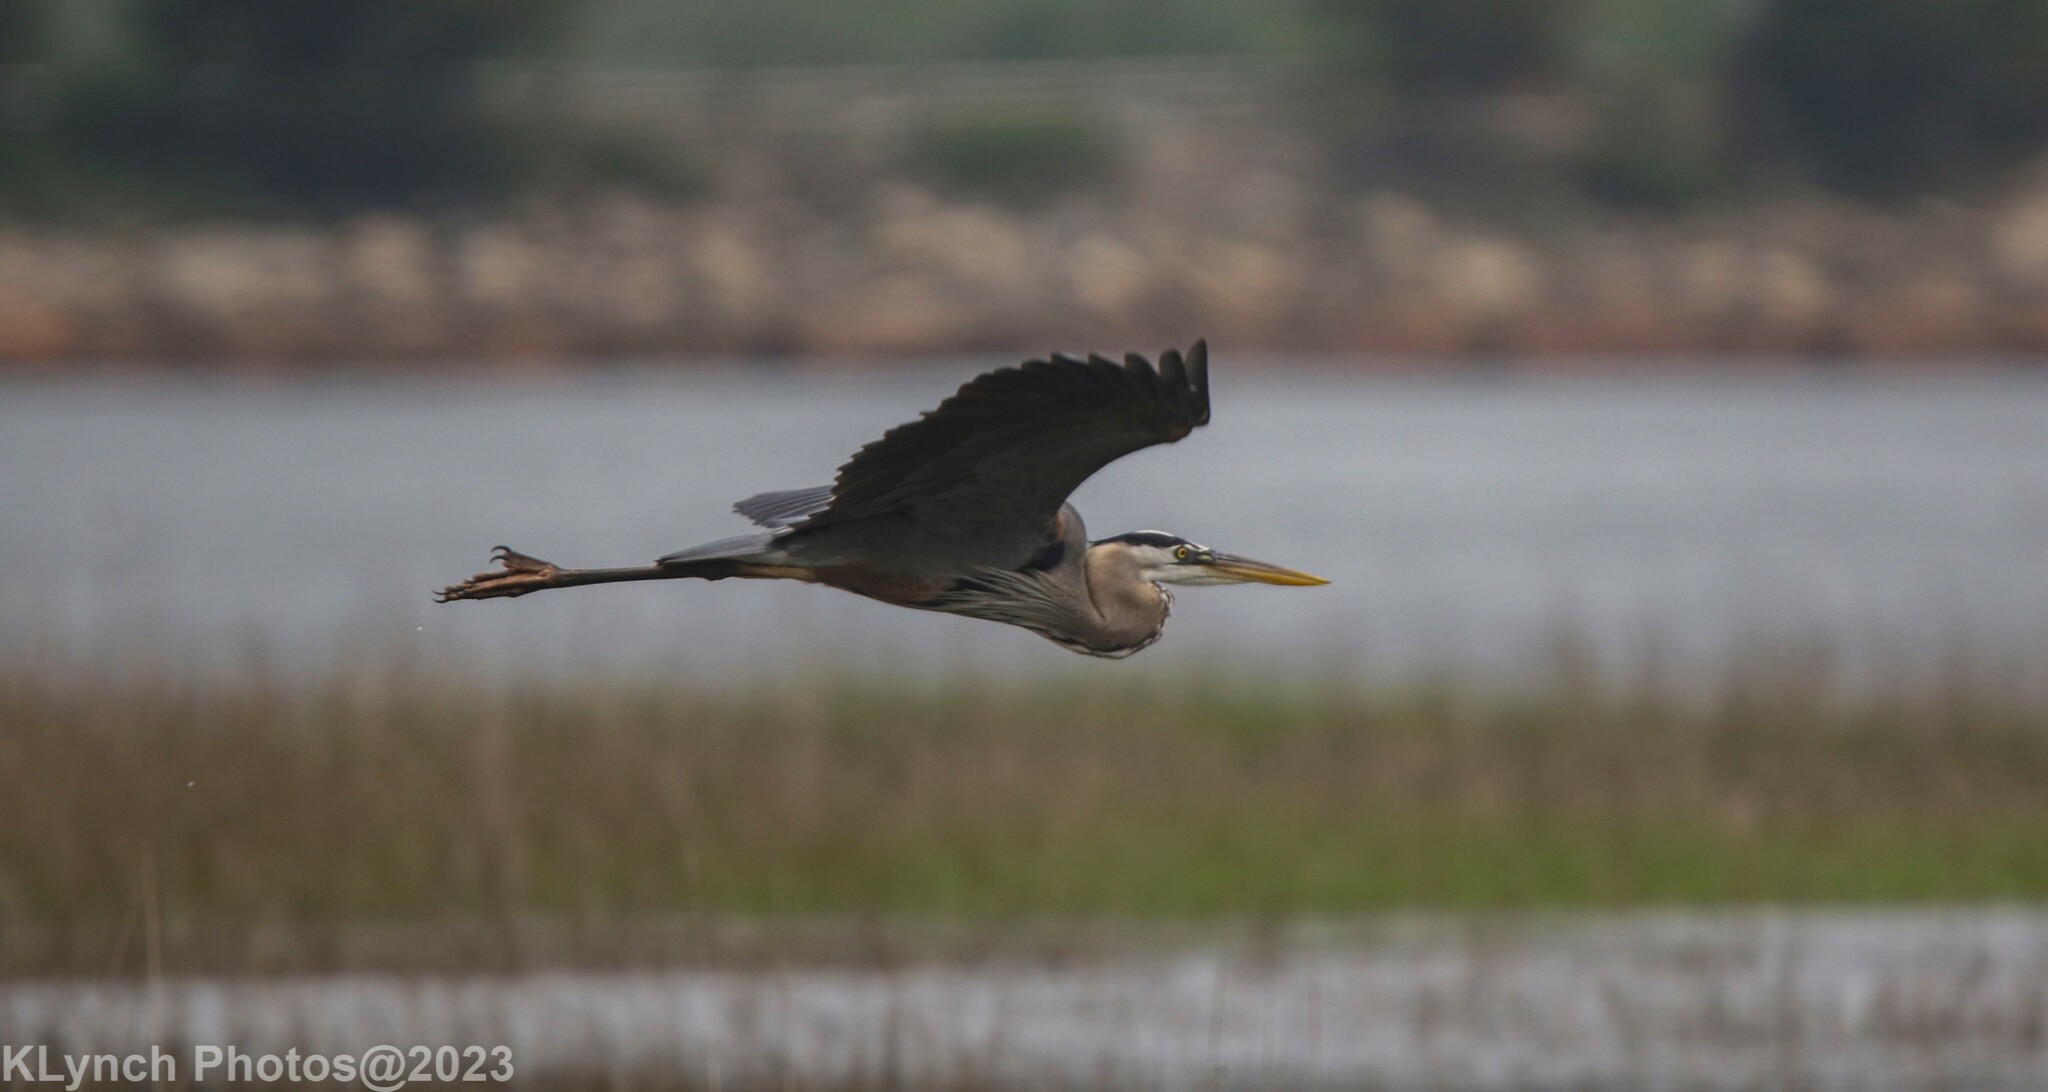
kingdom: Animalia
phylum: Chordata
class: Aves
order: Pelecaniformes
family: Ardeidae
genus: Ardea
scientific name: Ardea herodias
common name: Great blue heron
